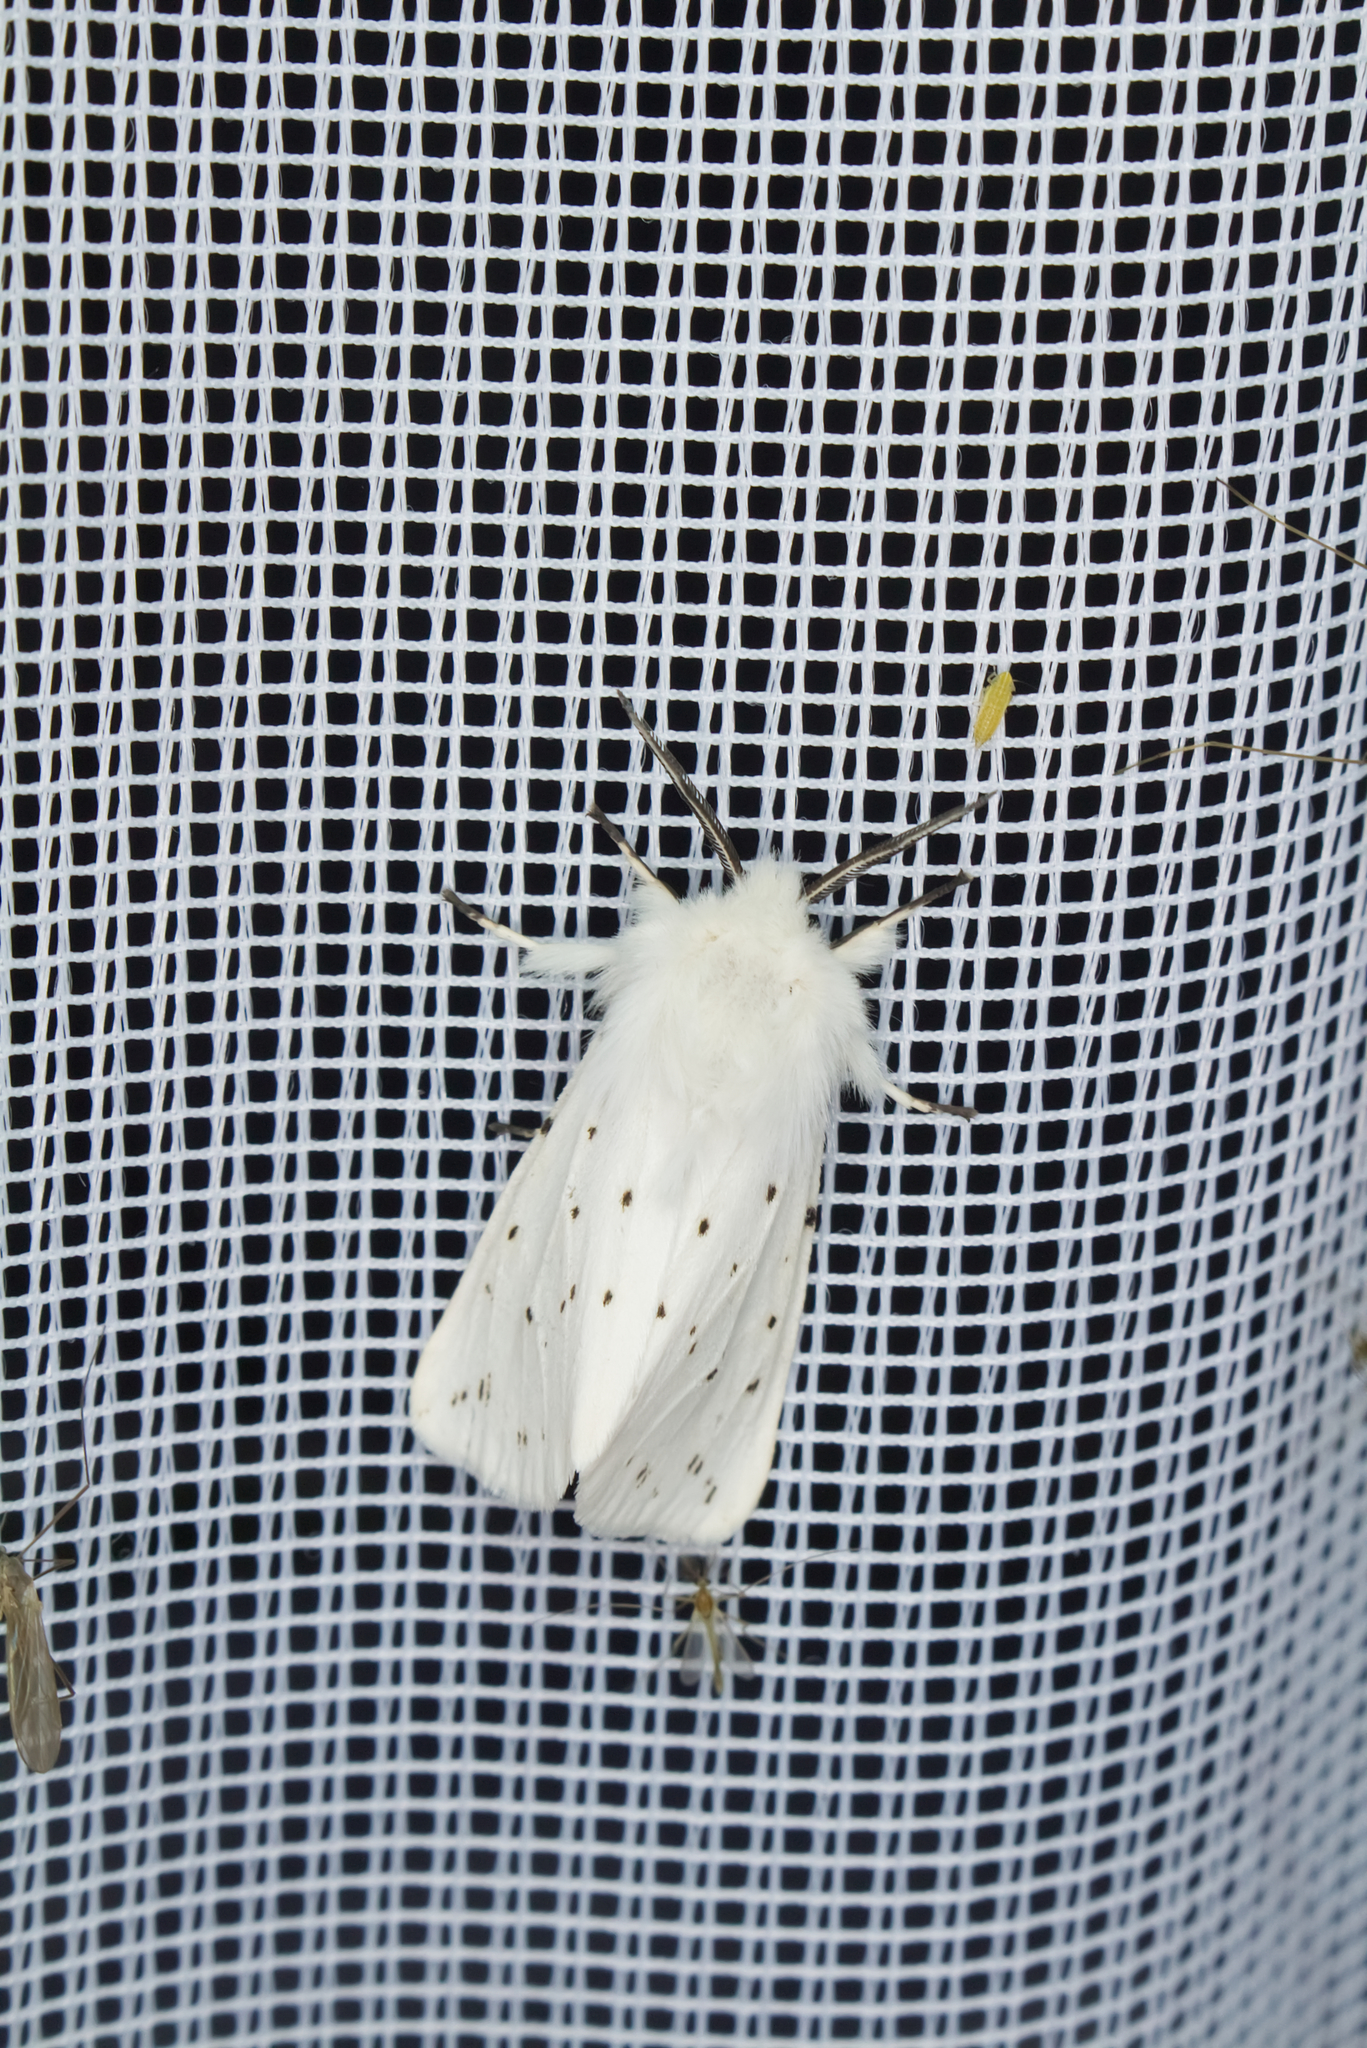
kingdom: Animalia
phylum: Arthropoda
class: Insecta
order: Lepidoptera
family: Erebidae
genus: Spilosoma
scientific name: Spilosoma lubricipeda
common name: White ermine
